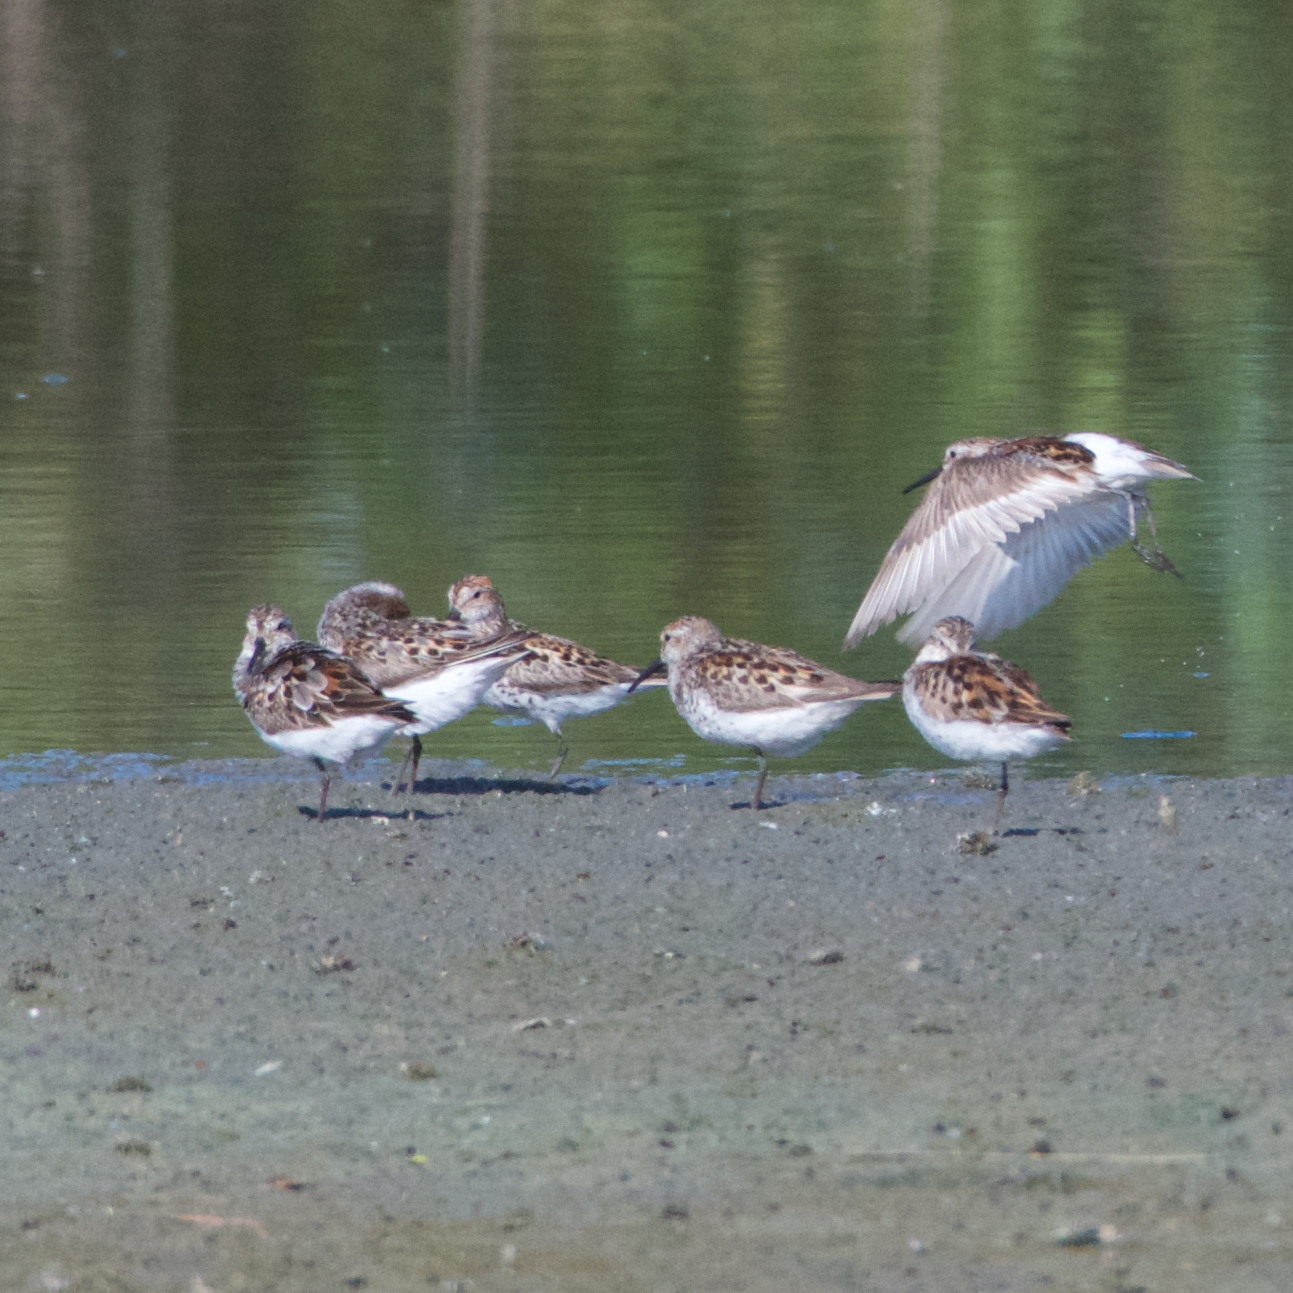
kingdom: Animalia
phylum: Chordata
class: Aves
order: Charadriiformes
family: Scolopacidae
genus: Calidris
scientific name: Calidris mauri
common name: Western sandpiper
